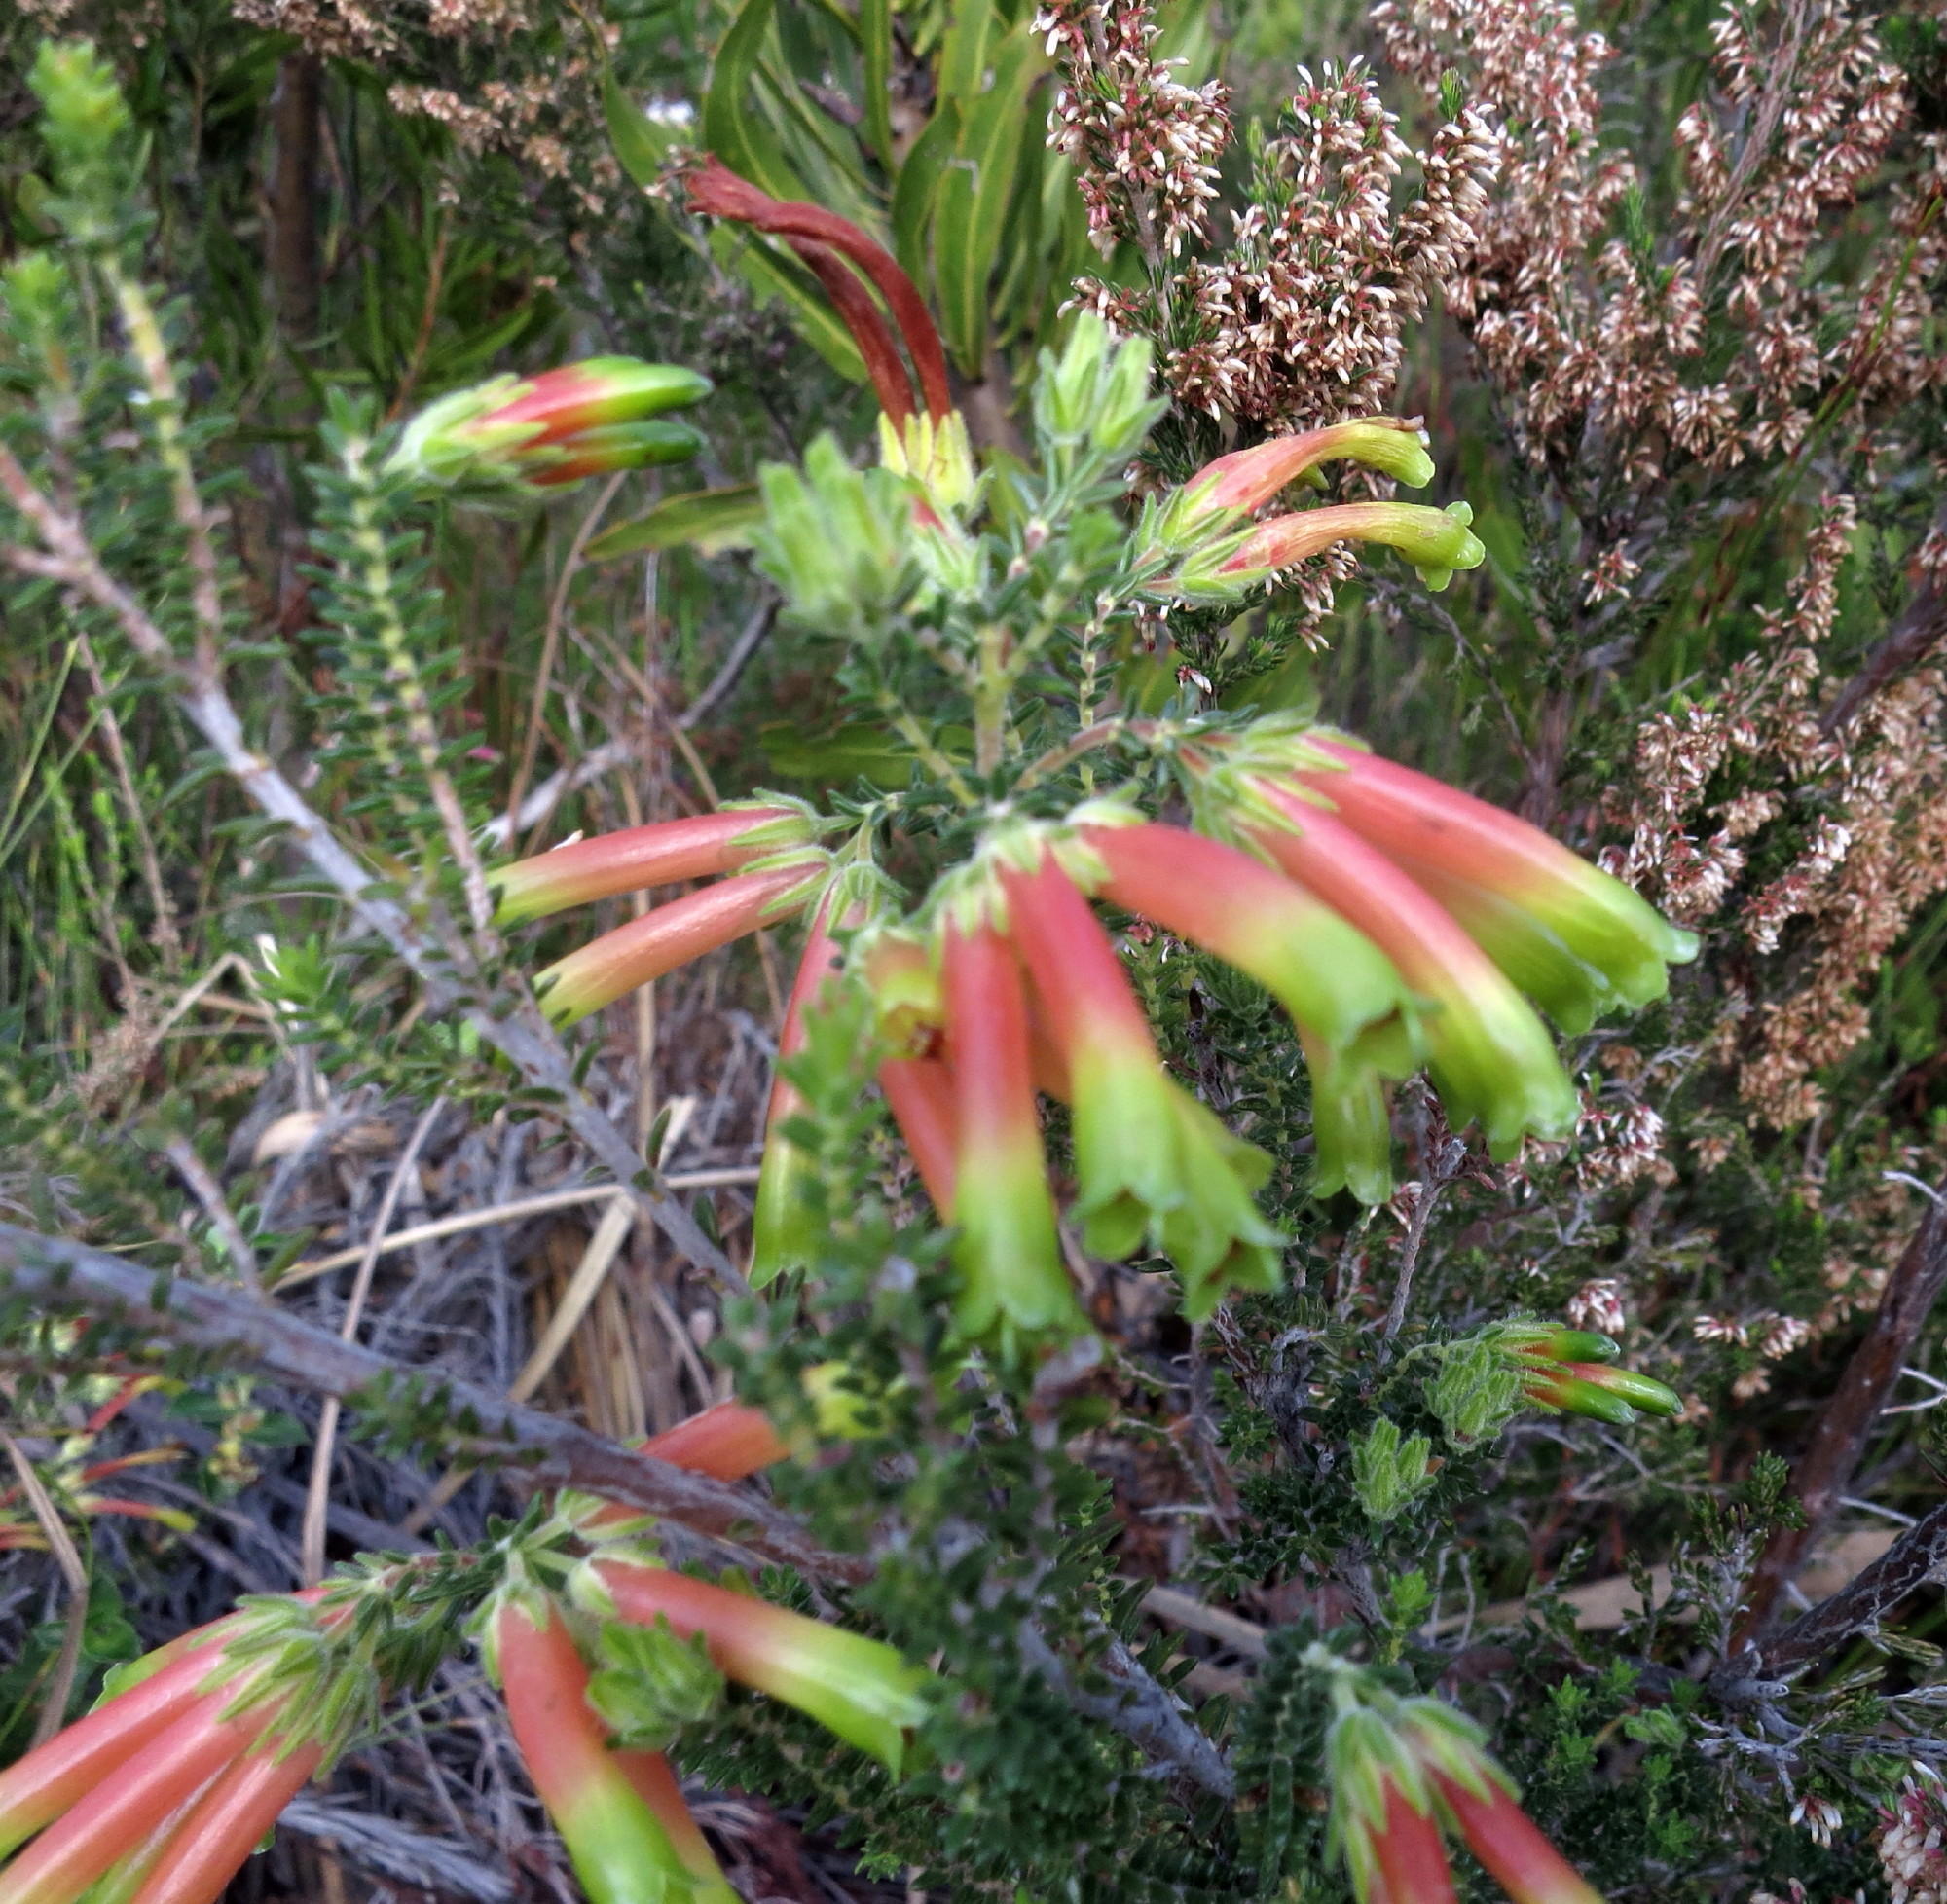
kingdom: Plantae
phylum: Tracheophyta
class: Magnoliopsida
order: Ericales
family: Ericaceae
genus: Erica
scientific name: Erica croceovirens
